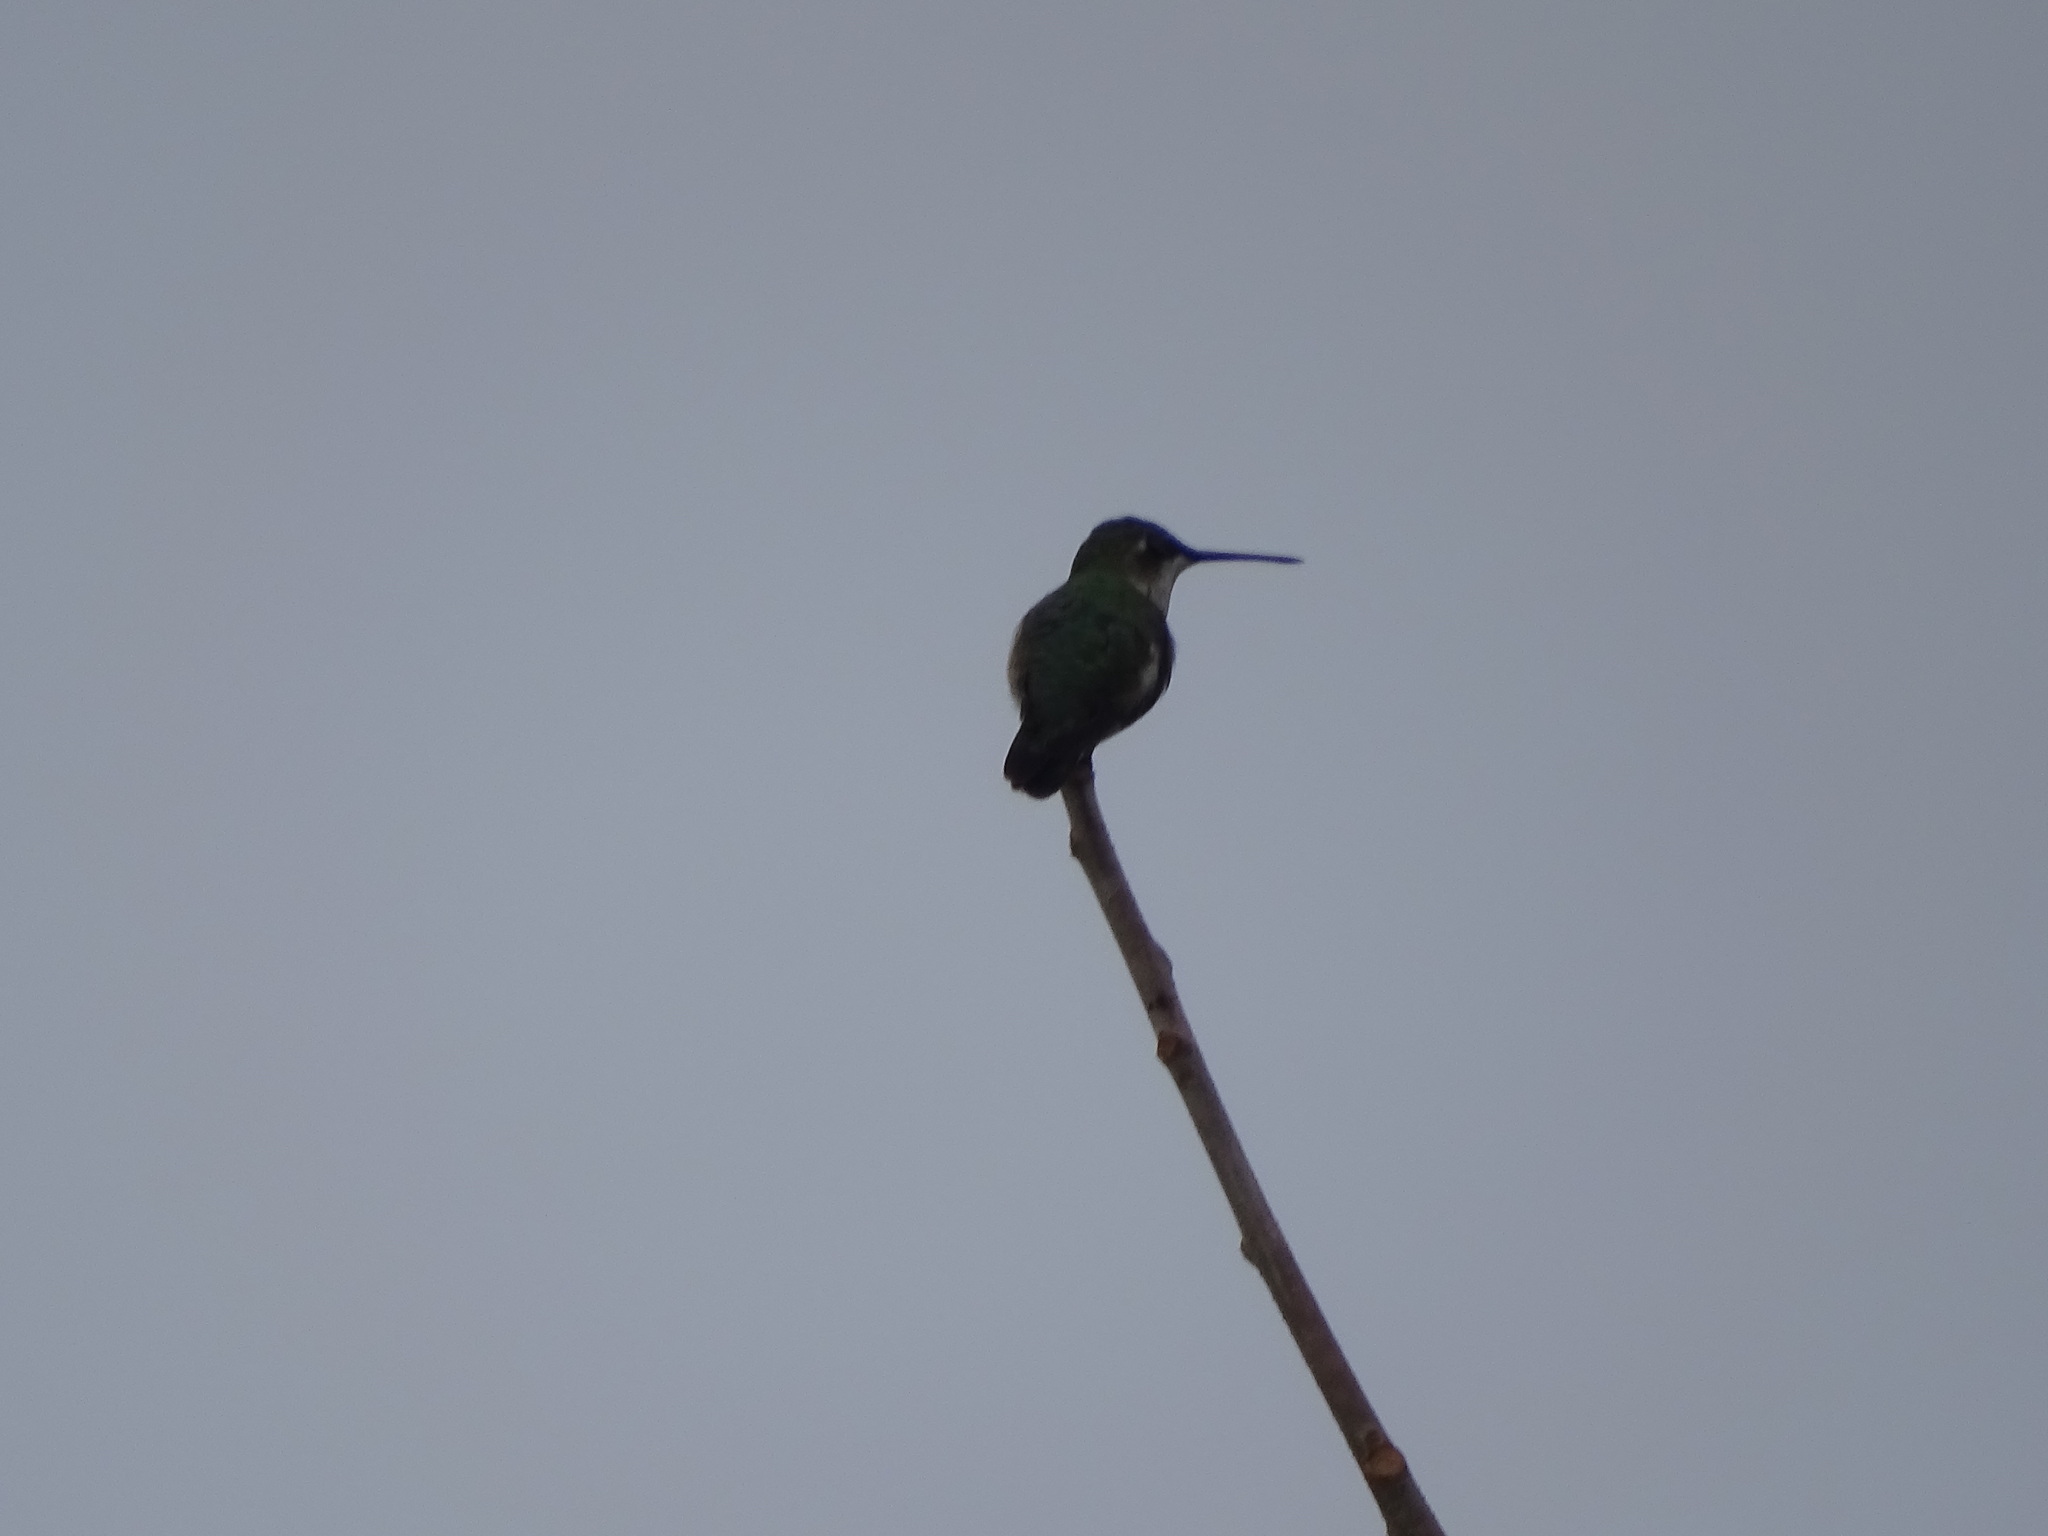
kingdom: Animalia
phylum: Chordata
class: Aves
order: Apodiformes
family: Trochilidae
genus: Archilochus
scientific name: Archilochus colubris
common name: Ruby-throated hummingbird
